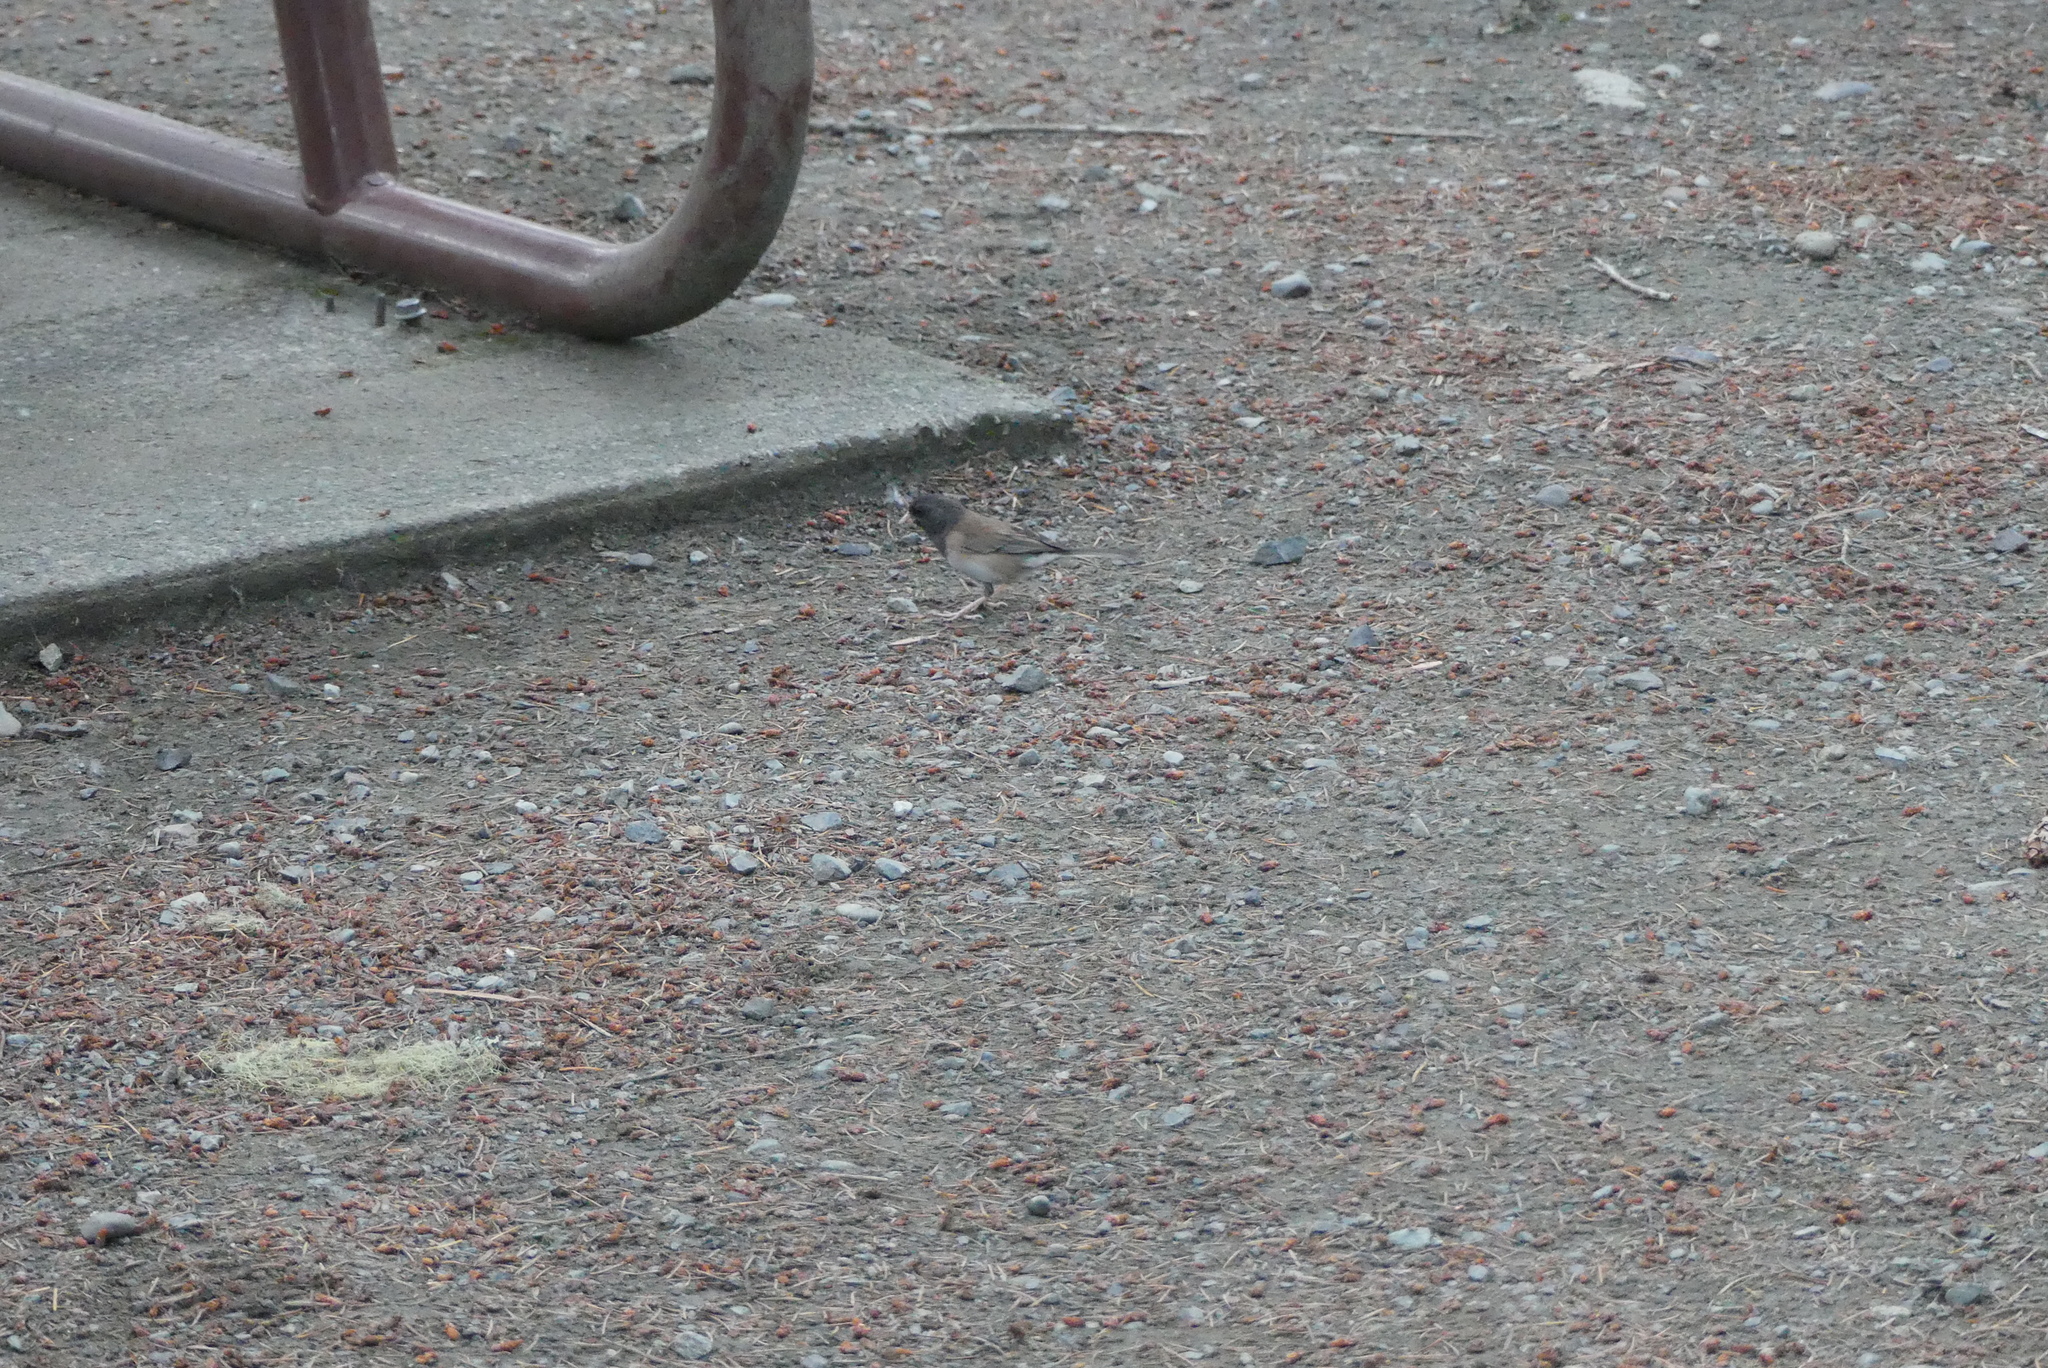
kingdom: Animalia
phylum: Chordata
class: Aves
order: Passeriformes
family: Passerellidae
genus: Junco
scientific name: Junco hyemalis
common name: Dark-eyed junco
